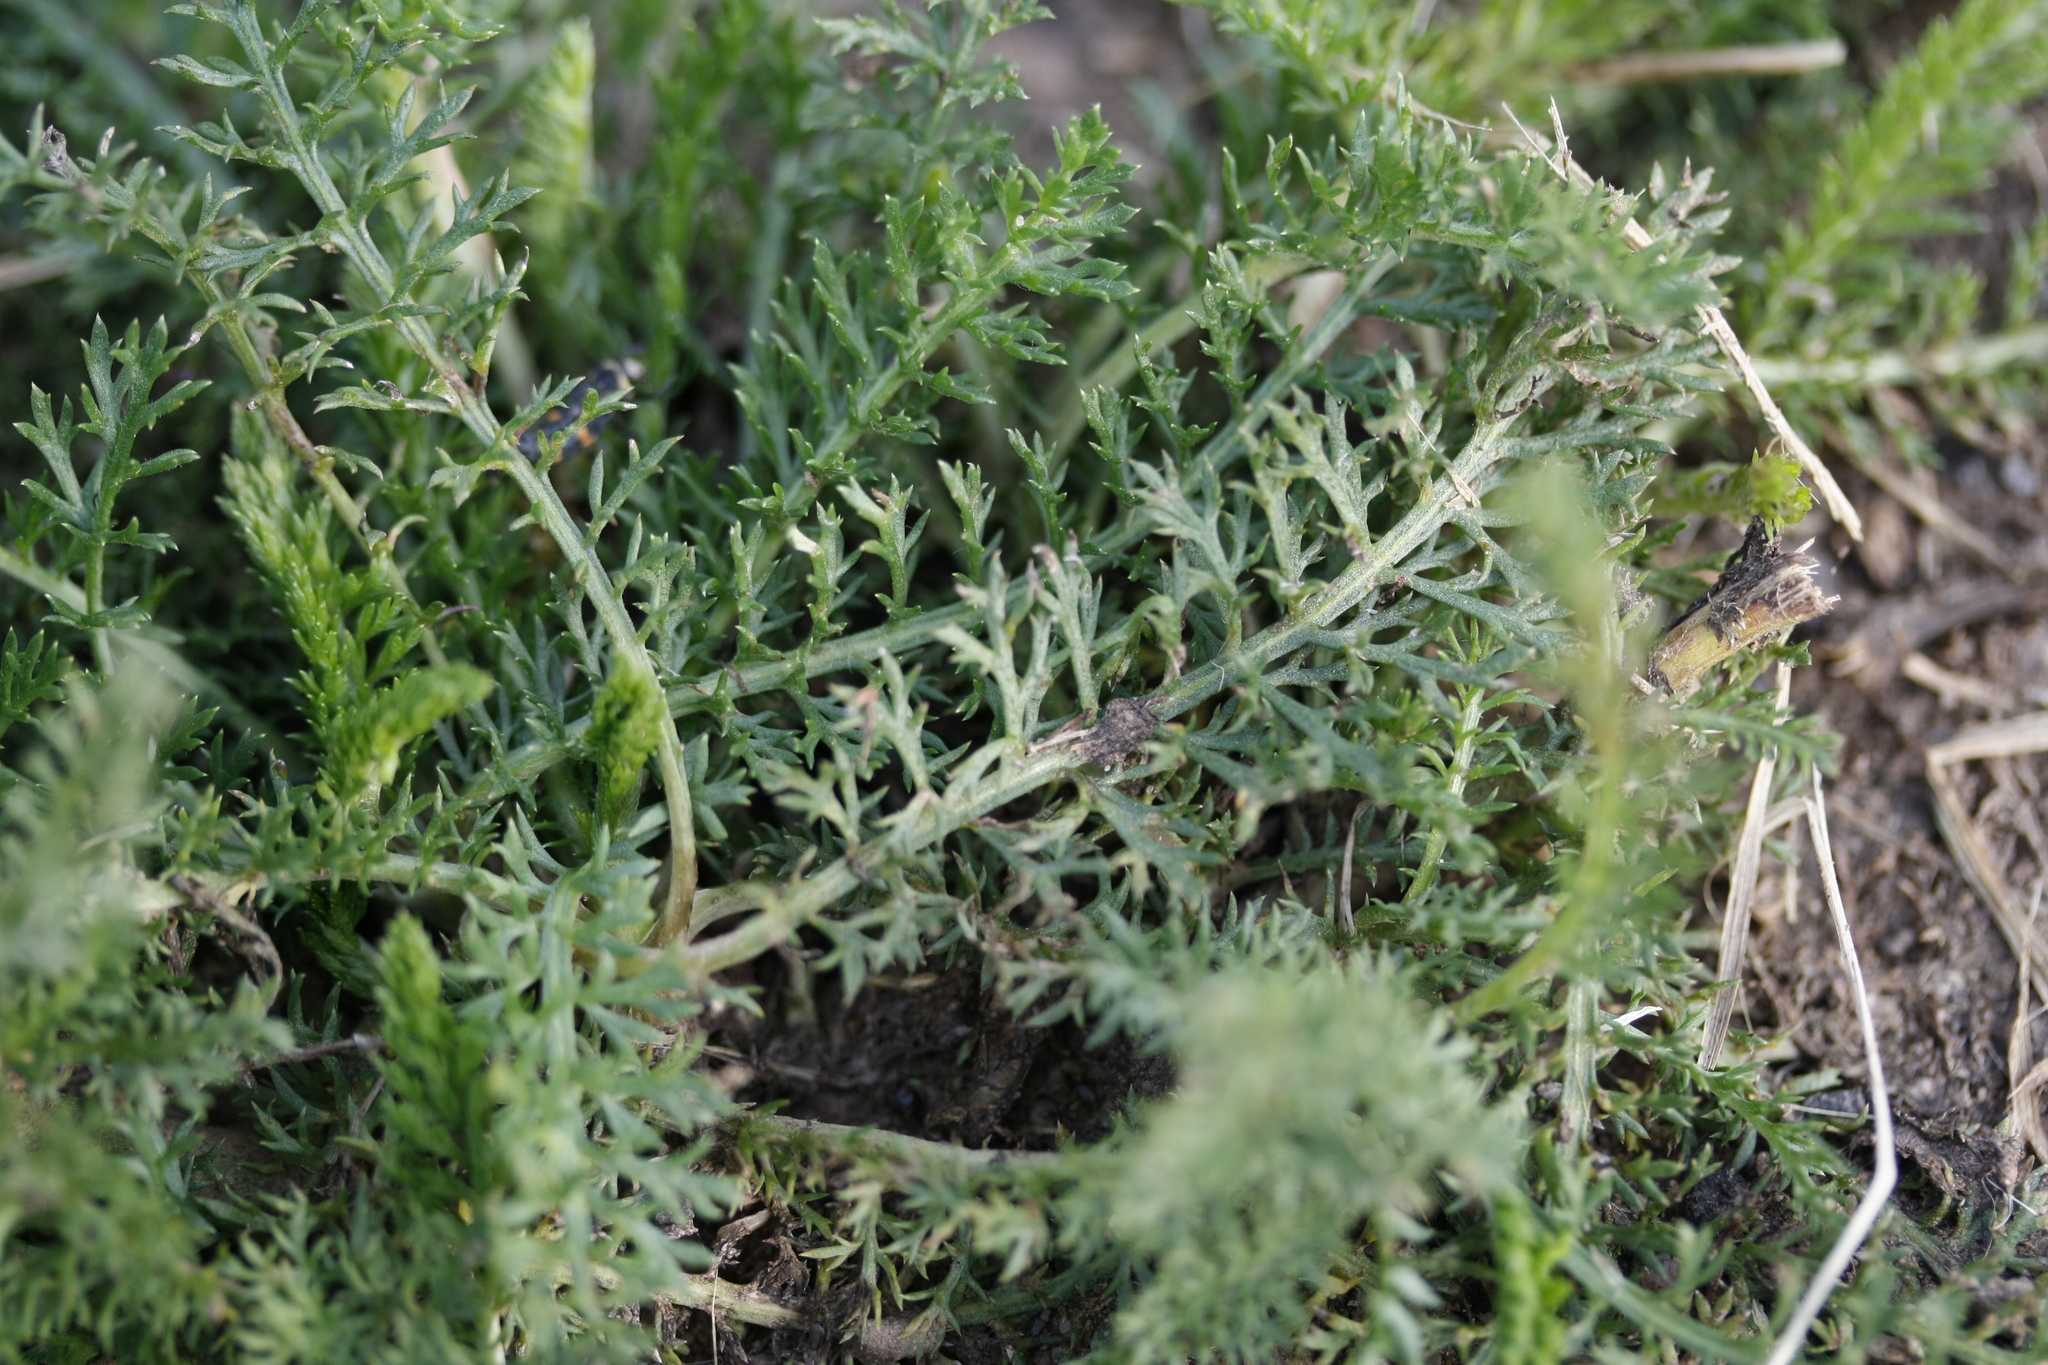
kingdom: Plantae
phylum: Tracheophyta
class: Magnoliopsida
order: Asterales
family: Asteraceae
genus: Achillea
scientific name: Achillea millefolium
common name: Yarrow
